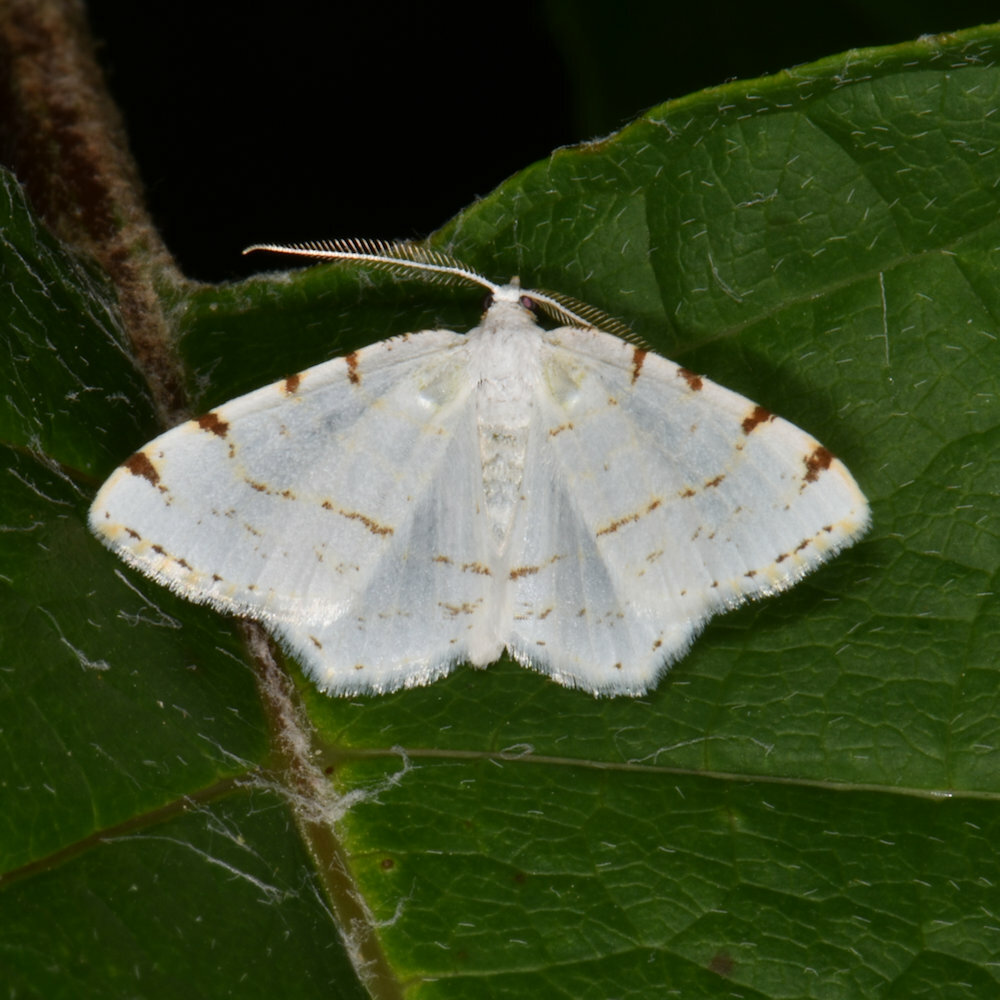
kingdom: Animalia
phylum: Arthropoda
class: Insecta
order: Lepidoptera
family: Geometridae
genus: Macaria
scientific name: Macaria pustularia
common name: Lesser maple spanworm moth
